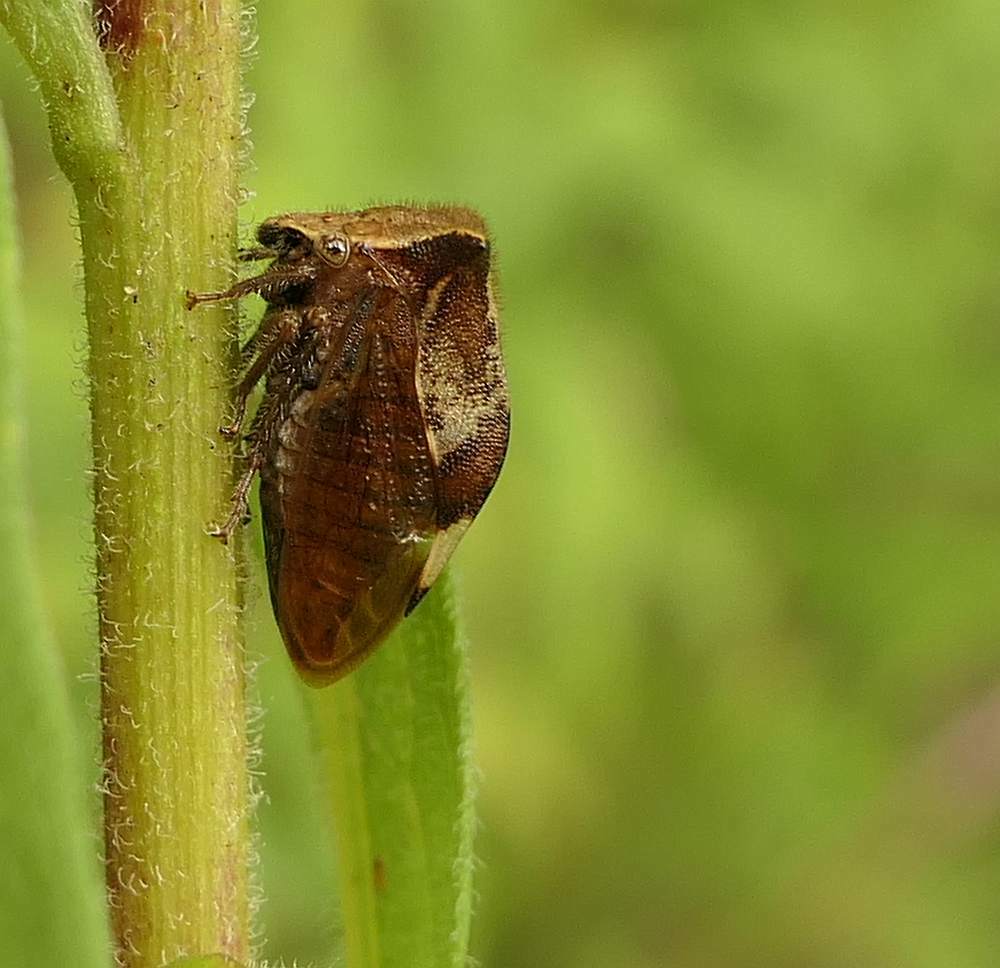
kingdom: Animalia
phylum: Arthropoda
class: Insecta
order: Hemiptera
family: Membracidae
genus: Stictocephala
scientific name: Stictocephala diceros
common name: Two-horned treehopper
